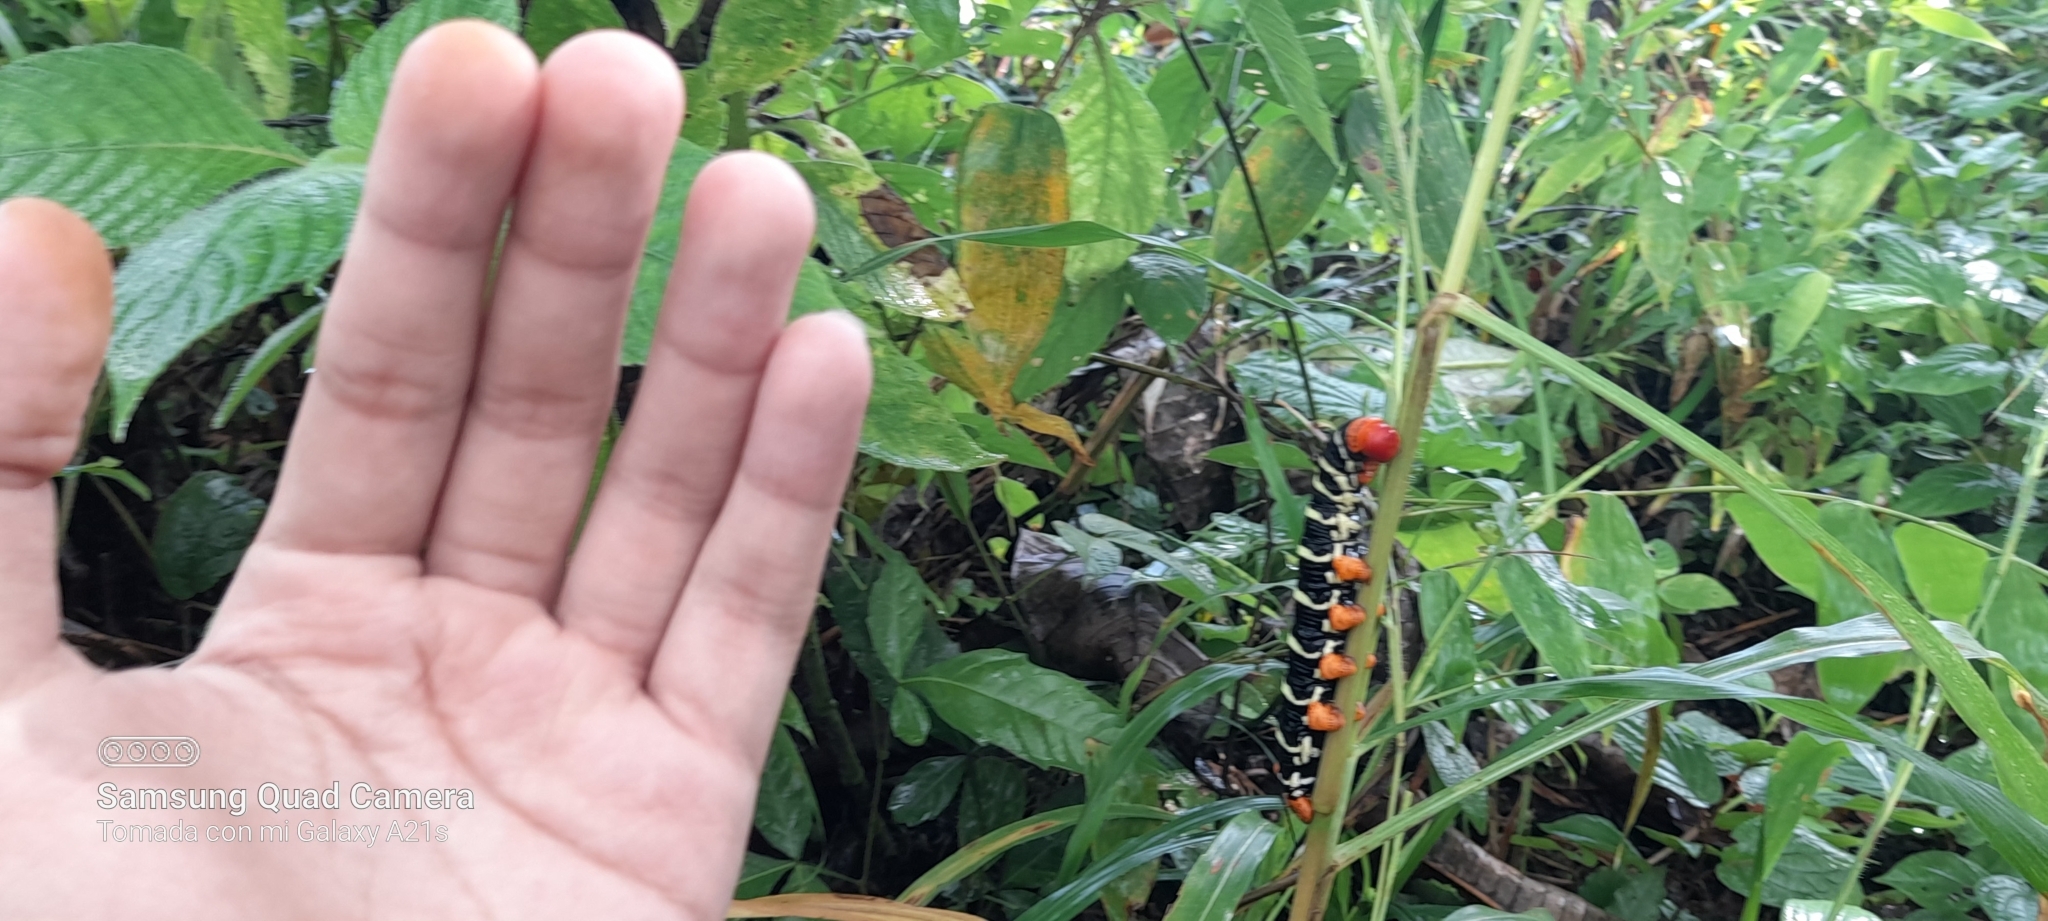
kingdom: Animalia
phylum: Arthropoda
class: Insecta
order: Lepidoptera
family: Sphingidae
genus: Pseudosphinx
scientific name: Pseudosphinx tetrio
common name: Tetrio sphinx
